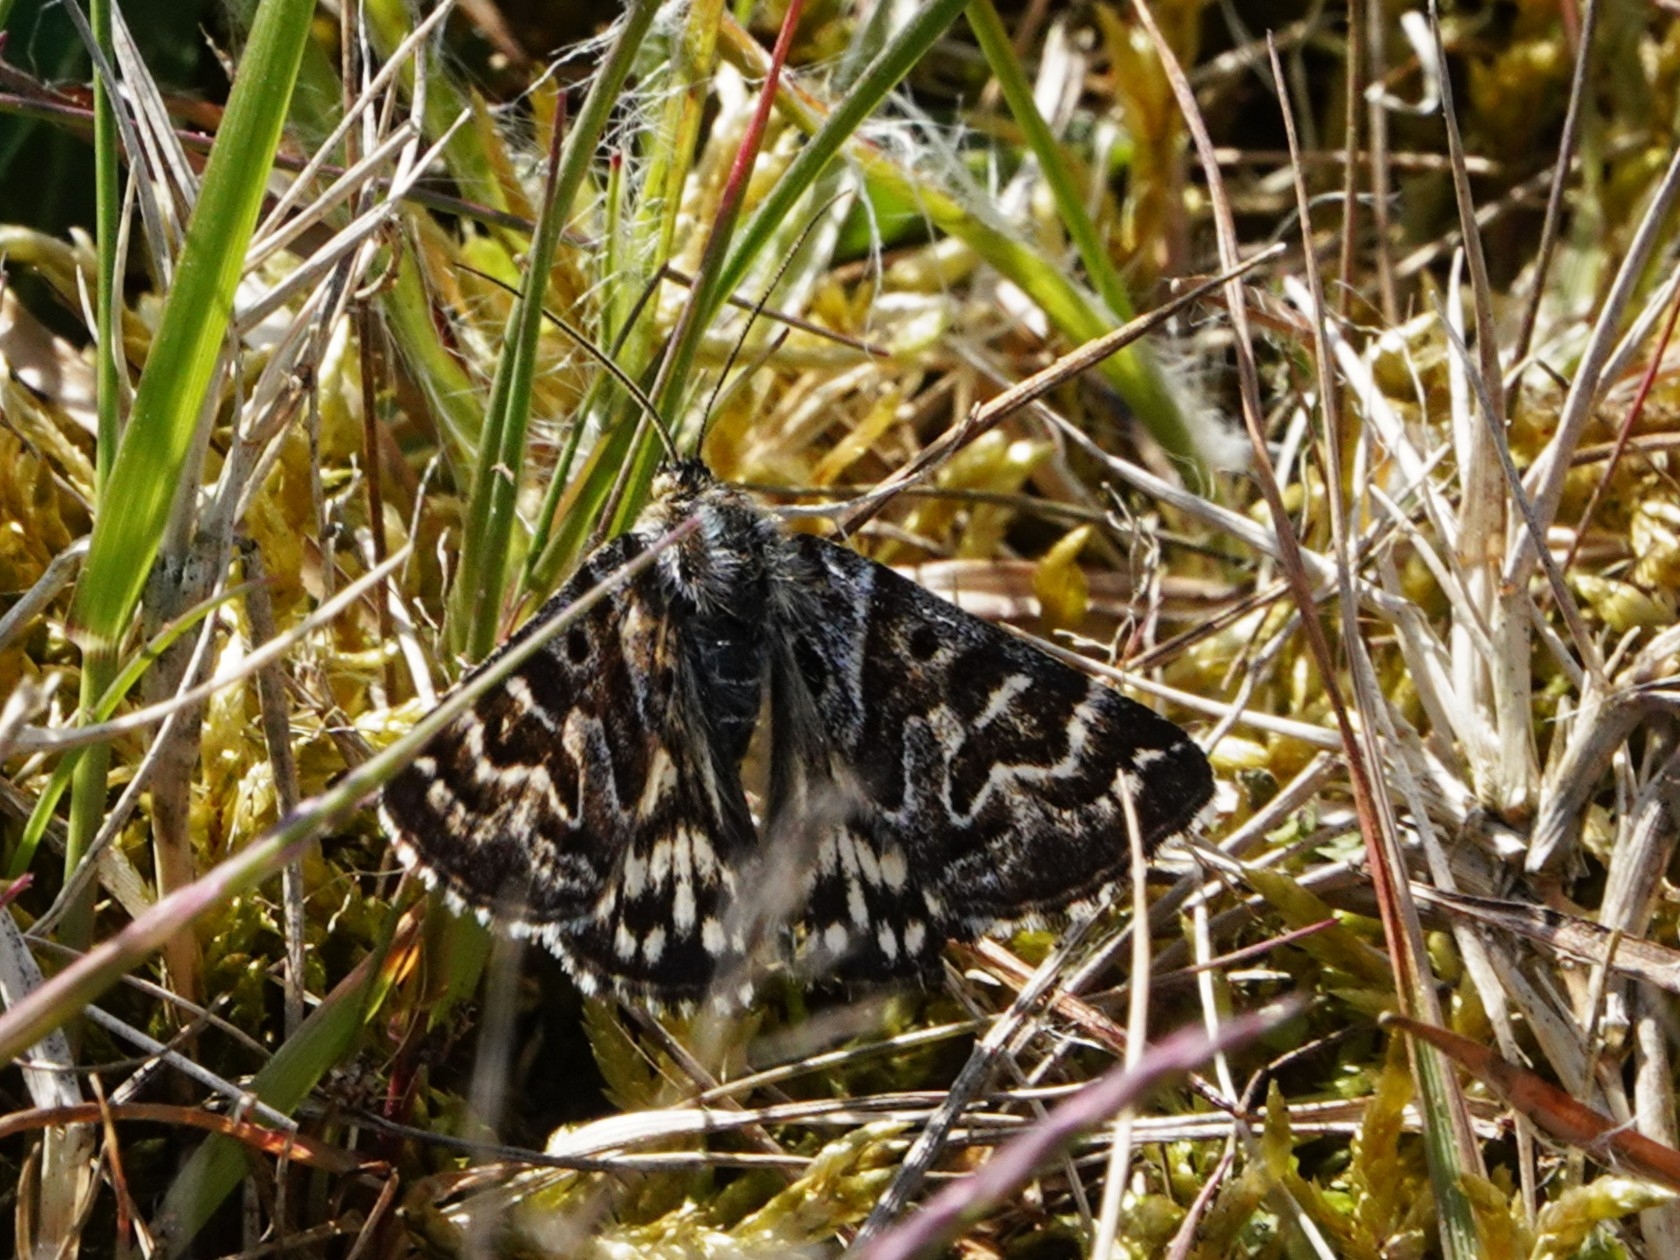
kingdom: Animalia
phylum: Arthropoda
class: Insecta
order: Lepidoptera
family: Erebidae
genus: Callistege
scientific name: Callistege mi
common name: Mother shipton
